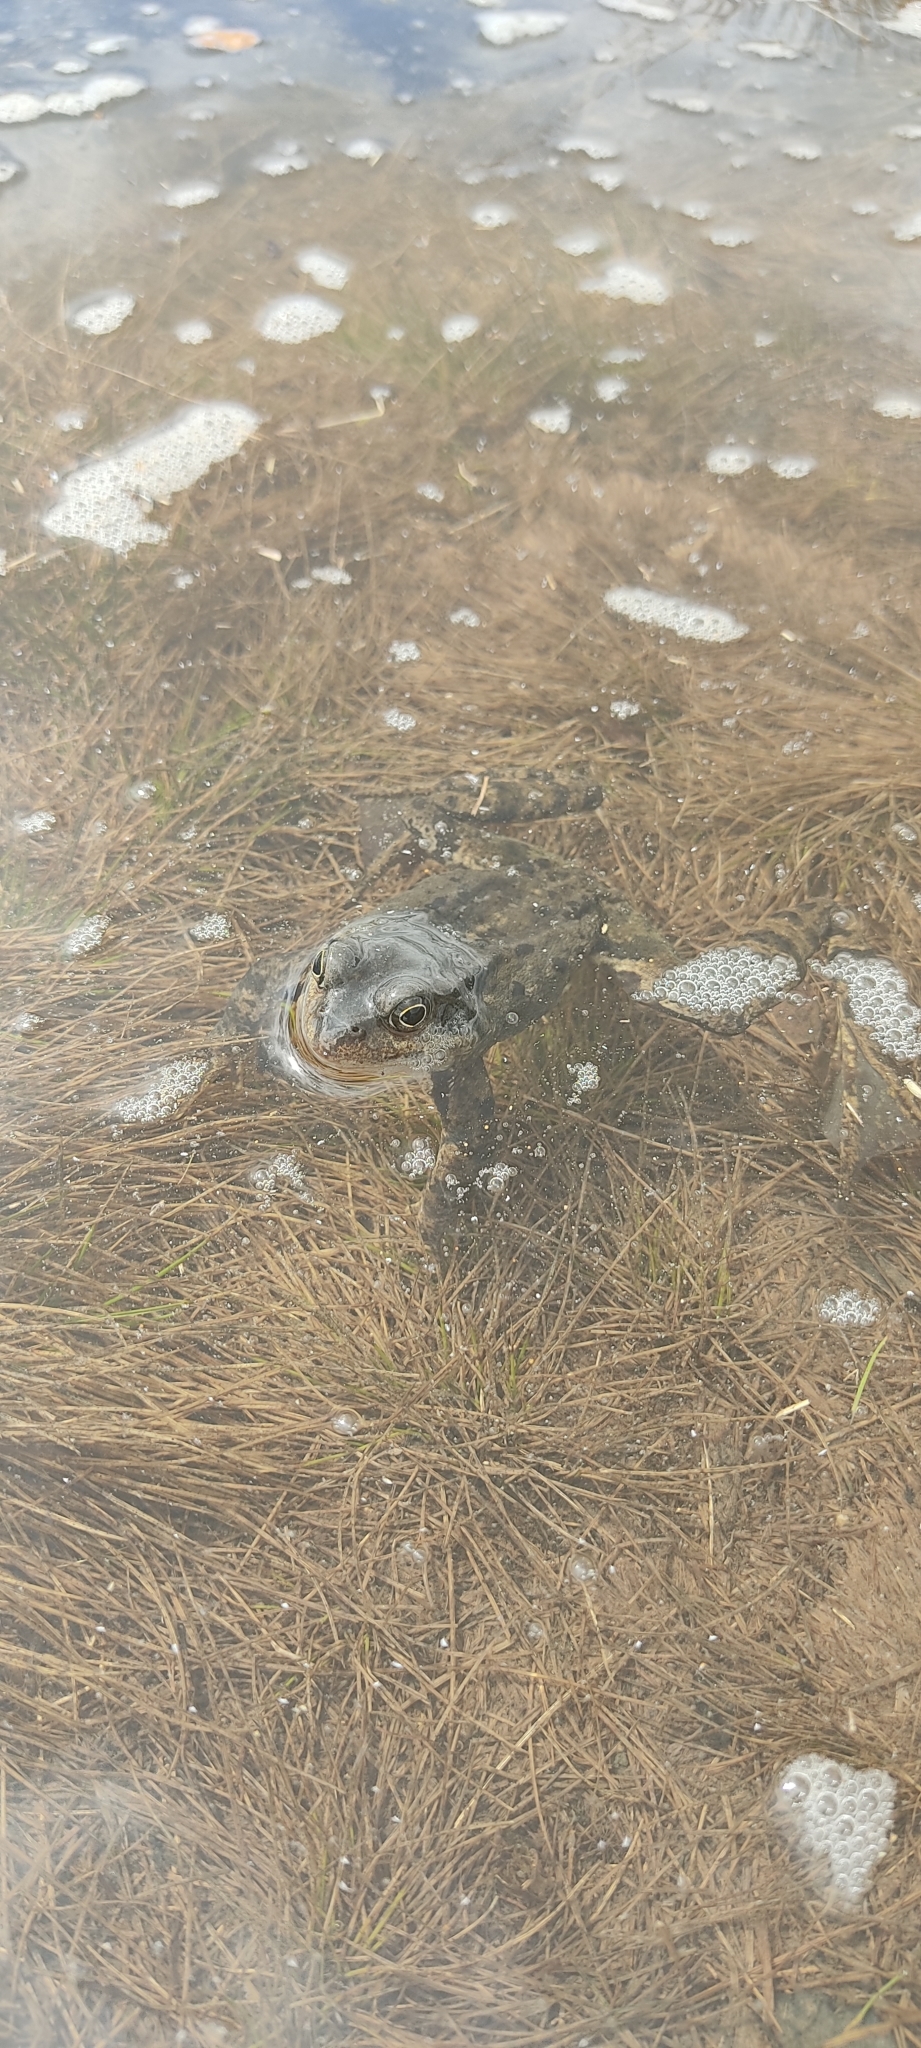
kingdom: Animalia
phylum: Chordata
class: Amphibia
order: Anura
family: Ranidae
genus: Rana
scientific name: Rana temporaria
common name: Common frog
